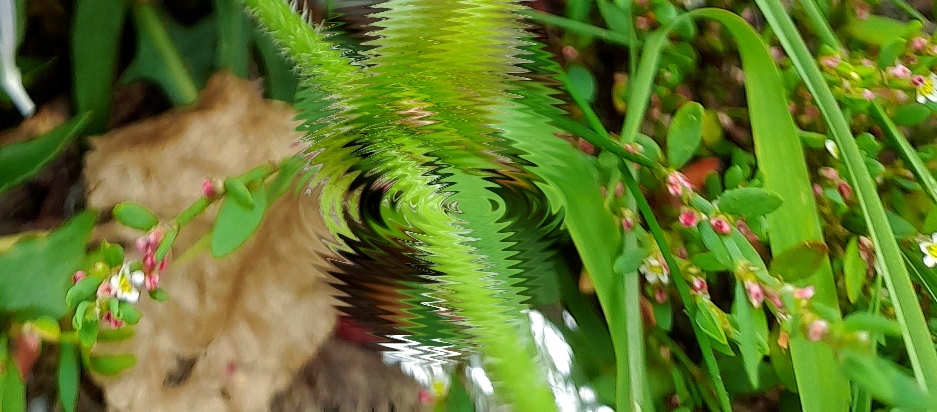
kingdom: Plantae
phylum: Tracheophyta
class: Magnoliopsida
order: Caryophyllales
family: Polygonaceae
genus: Polygonum
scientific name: Polygonum
